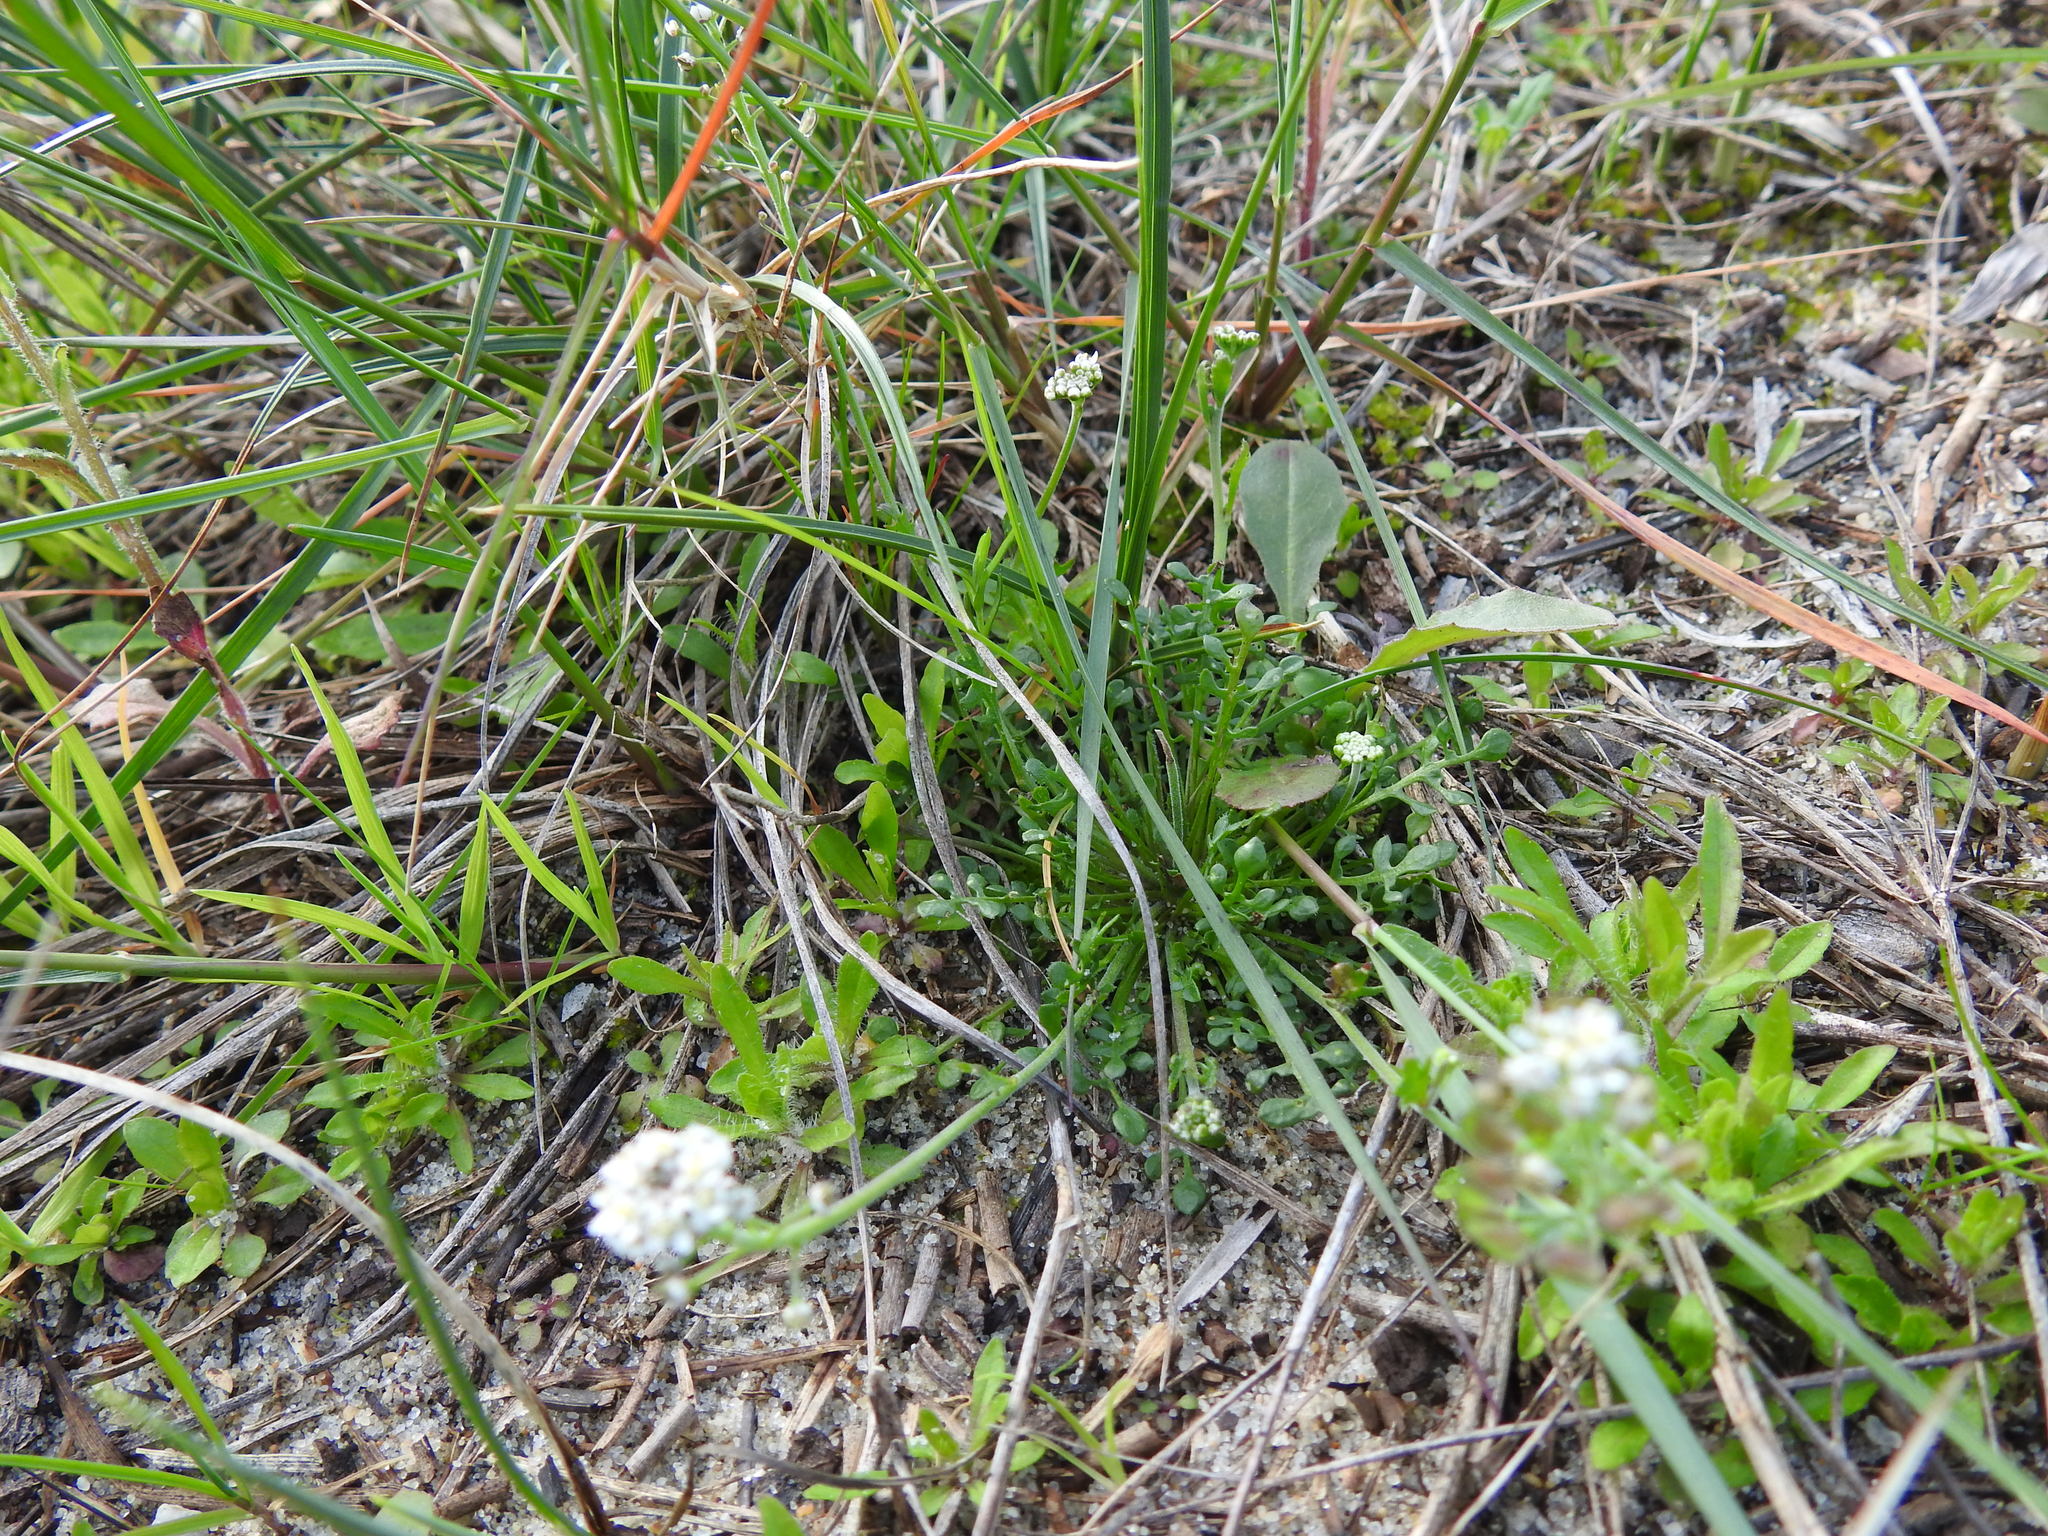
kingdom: Plantae
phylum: Tracheophyta
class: Magnoliopsida
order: Brassicales
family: Brassicaceae
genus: Teesdalia
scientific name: Teesdalia nudicaulis
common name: Shepherd's cress
